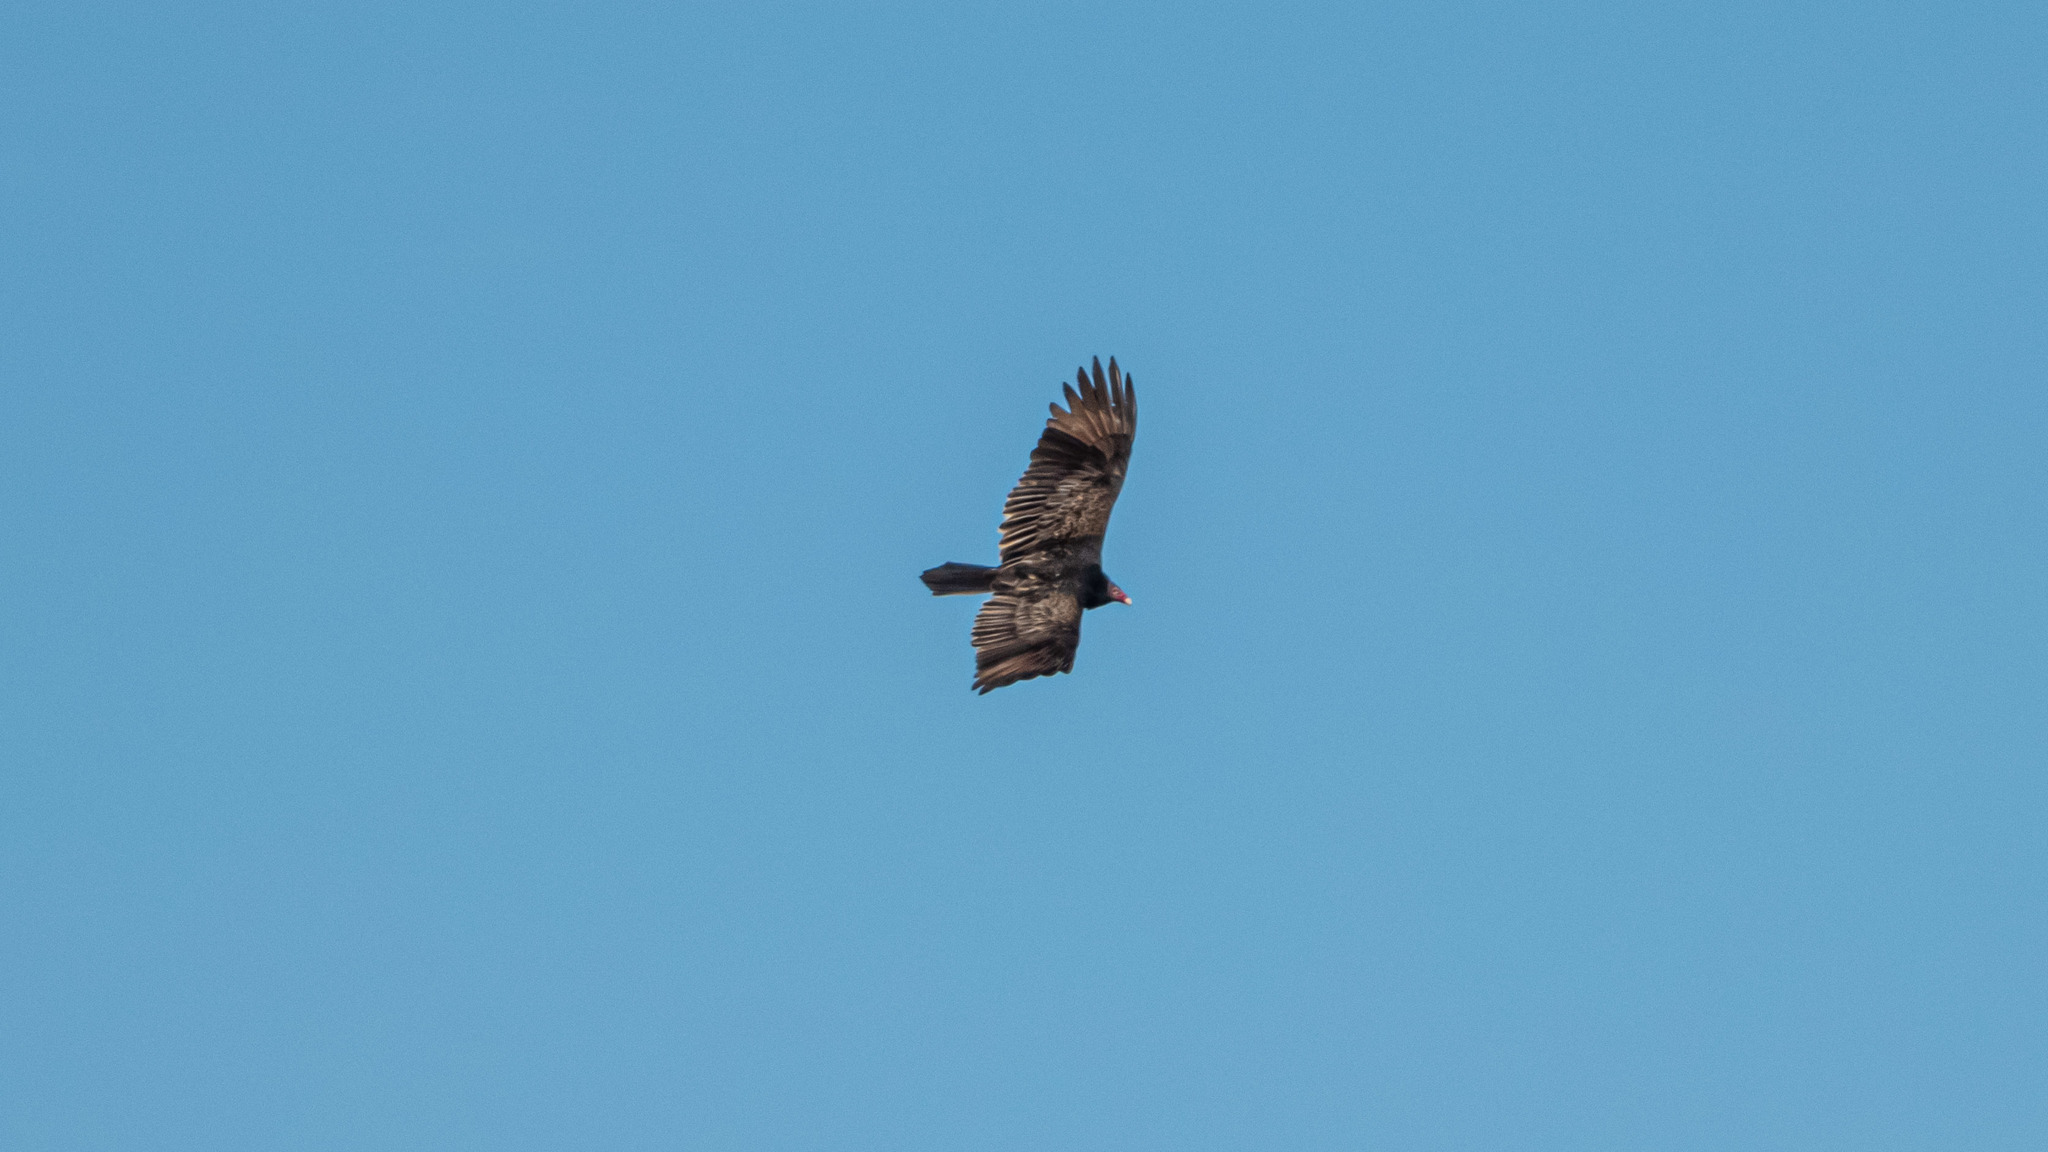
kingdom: Animalia
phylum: Chordata
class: Aves
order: Accipitriformes
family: Cathartidae
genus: Cathartes
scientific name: Cathartes aura
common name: Turkey vulture
